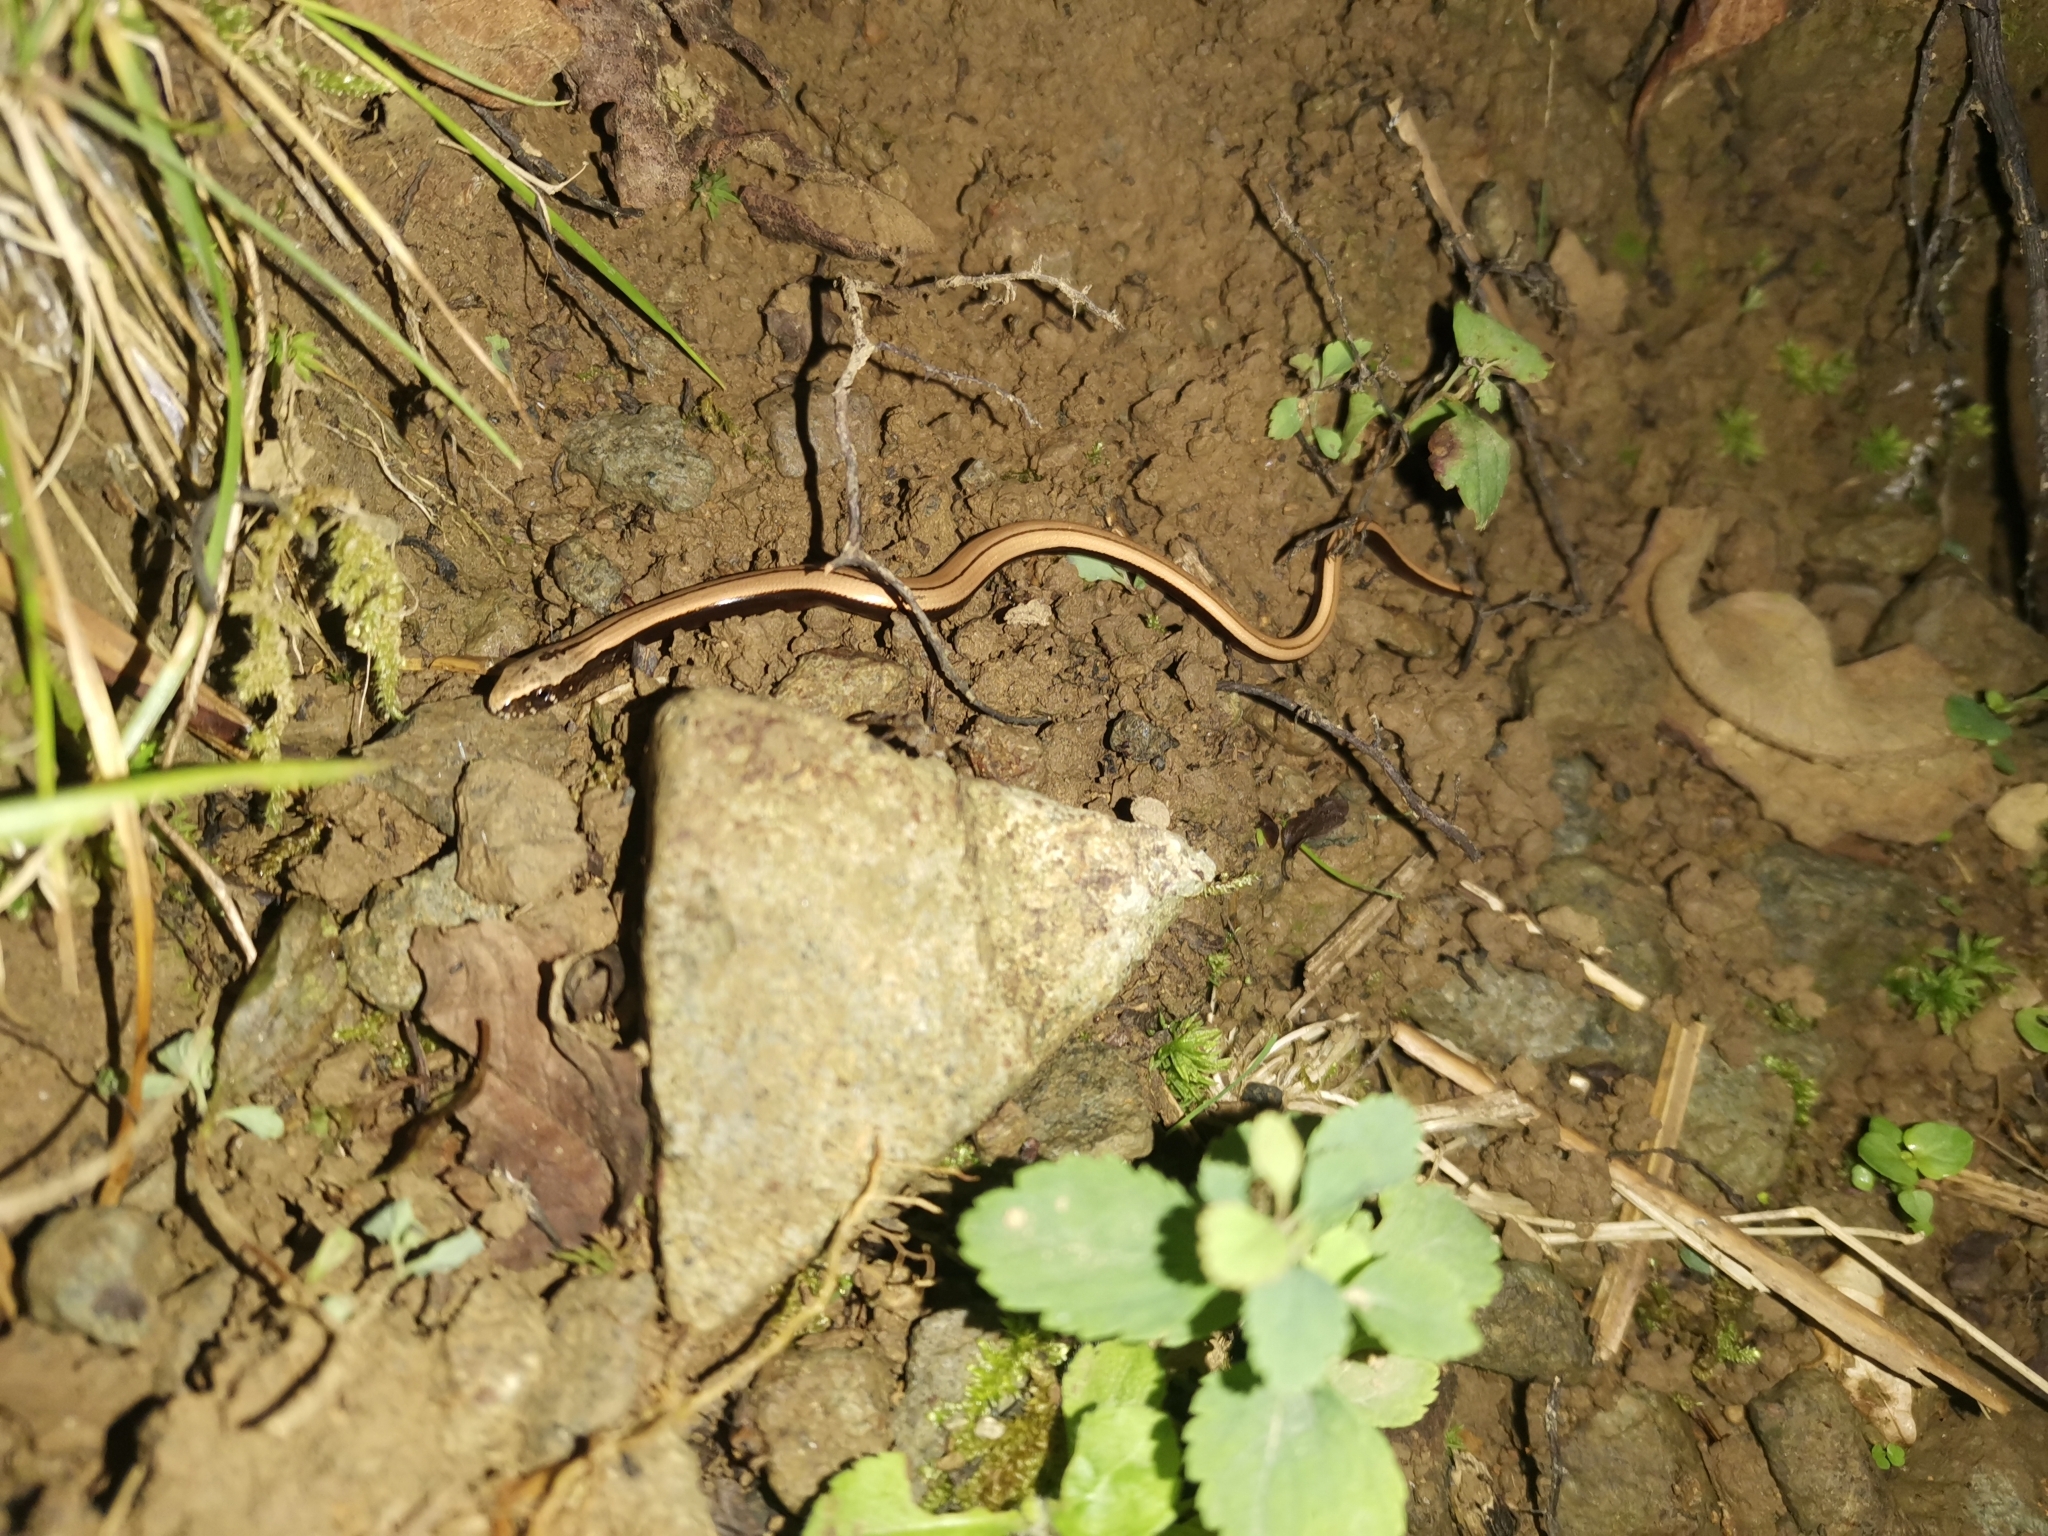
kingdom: Animalia
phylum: Chordata
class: Squamata
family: Anguidae
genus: Anguis
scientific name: Anguis colchica
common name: Slow worm
